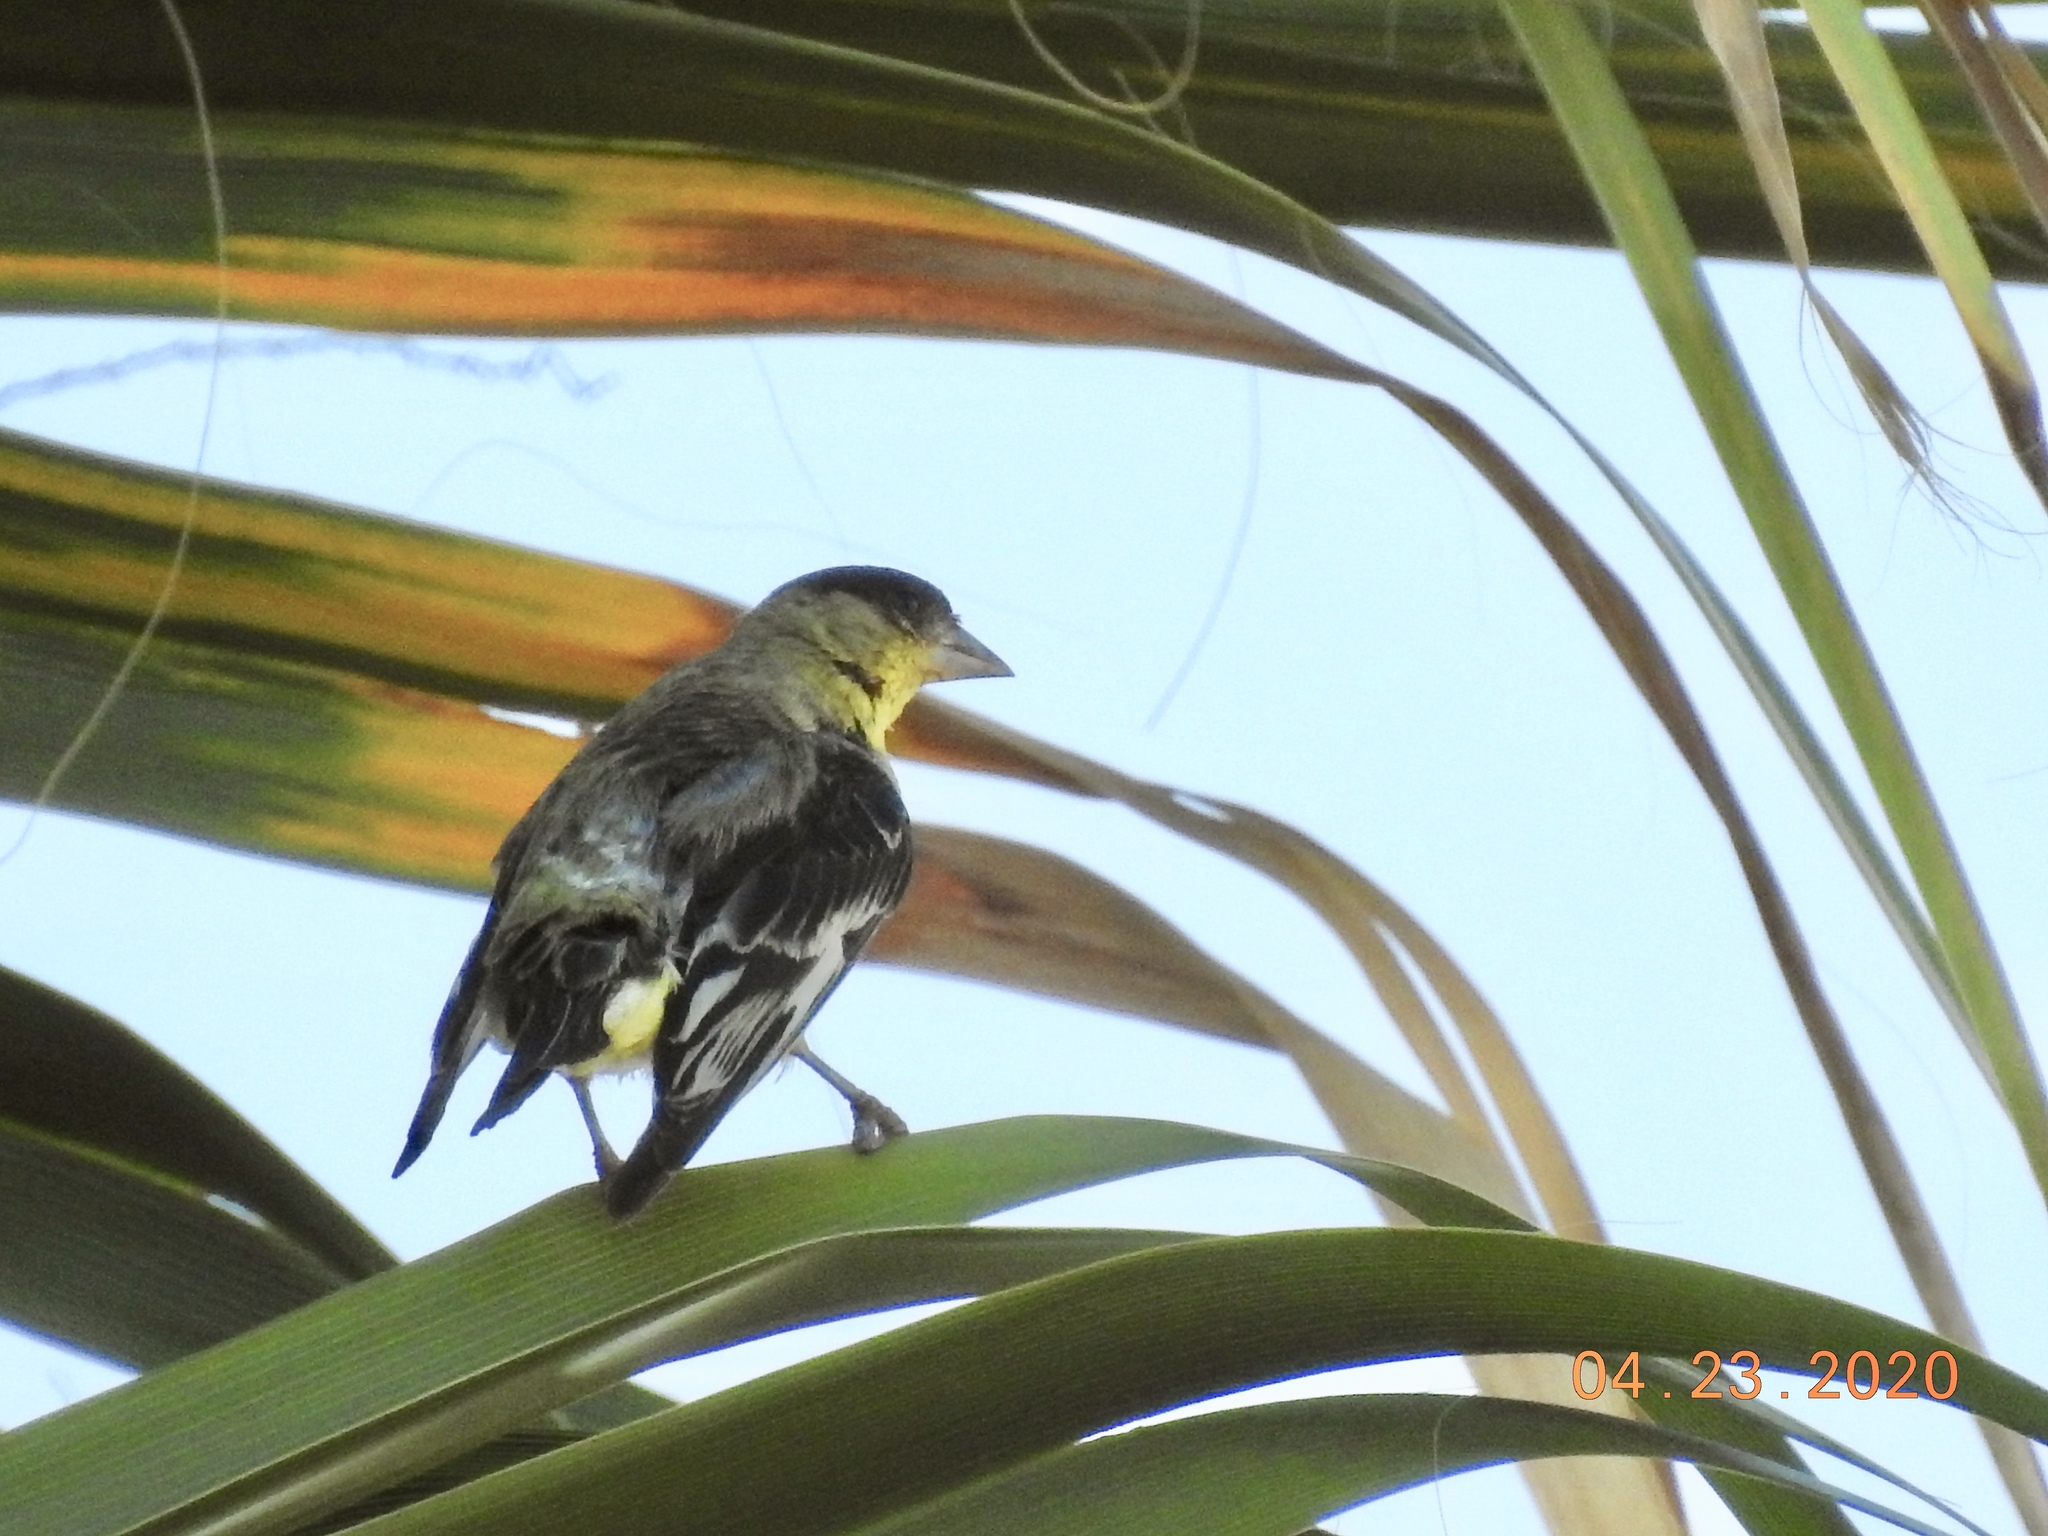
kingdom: Animalia
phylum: Chordata
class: Aves
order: Passeriformes
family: Fringillidae
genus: Spinus
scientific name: Spinus psaltria
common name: Lesser goldfinch
